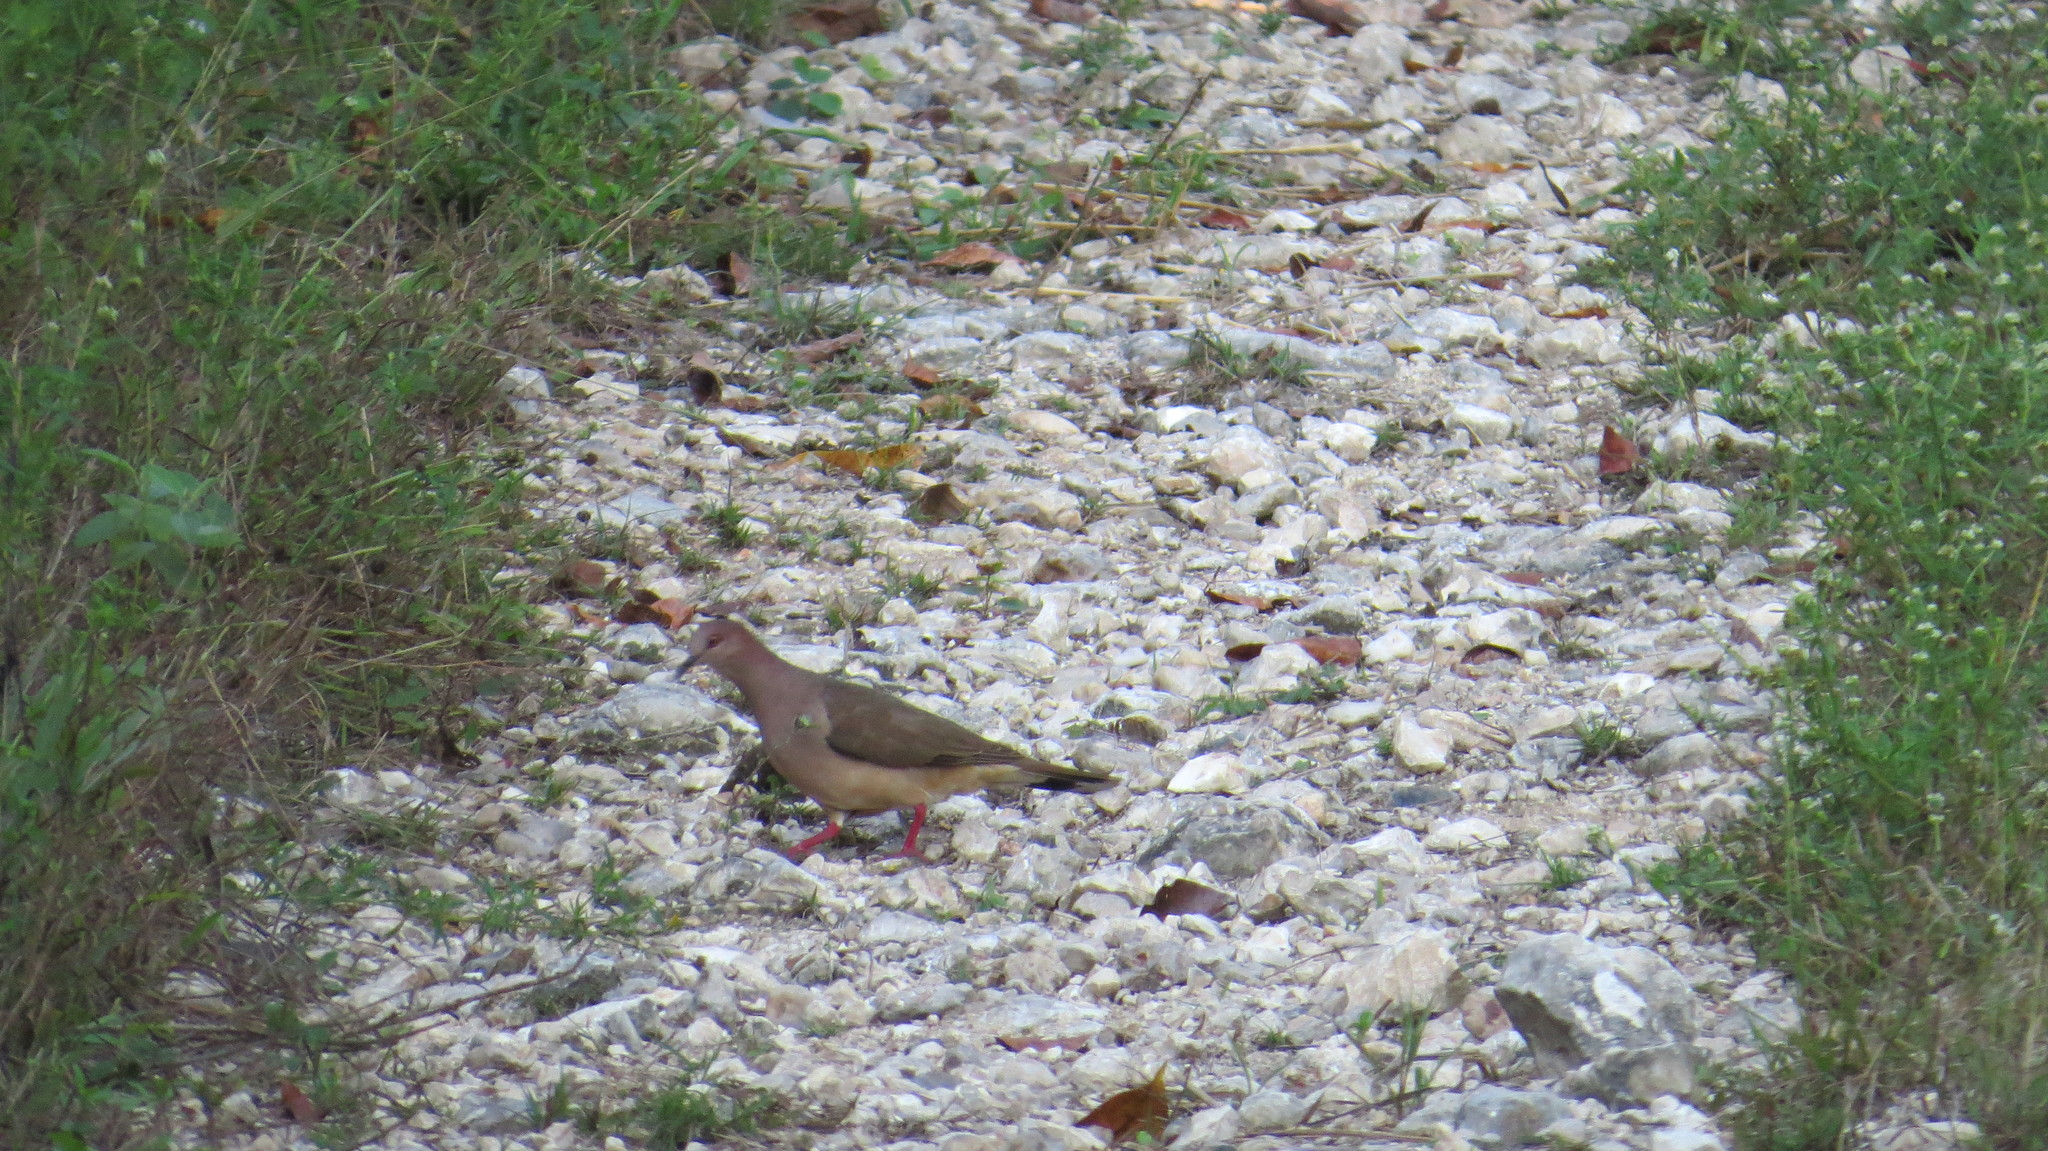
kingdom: Animalia
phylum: Chordata
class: Aves
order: Columbiformes
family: Columbidae
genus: Leptotila
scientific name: Leptotila verreauxi
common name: White-tipped dove
